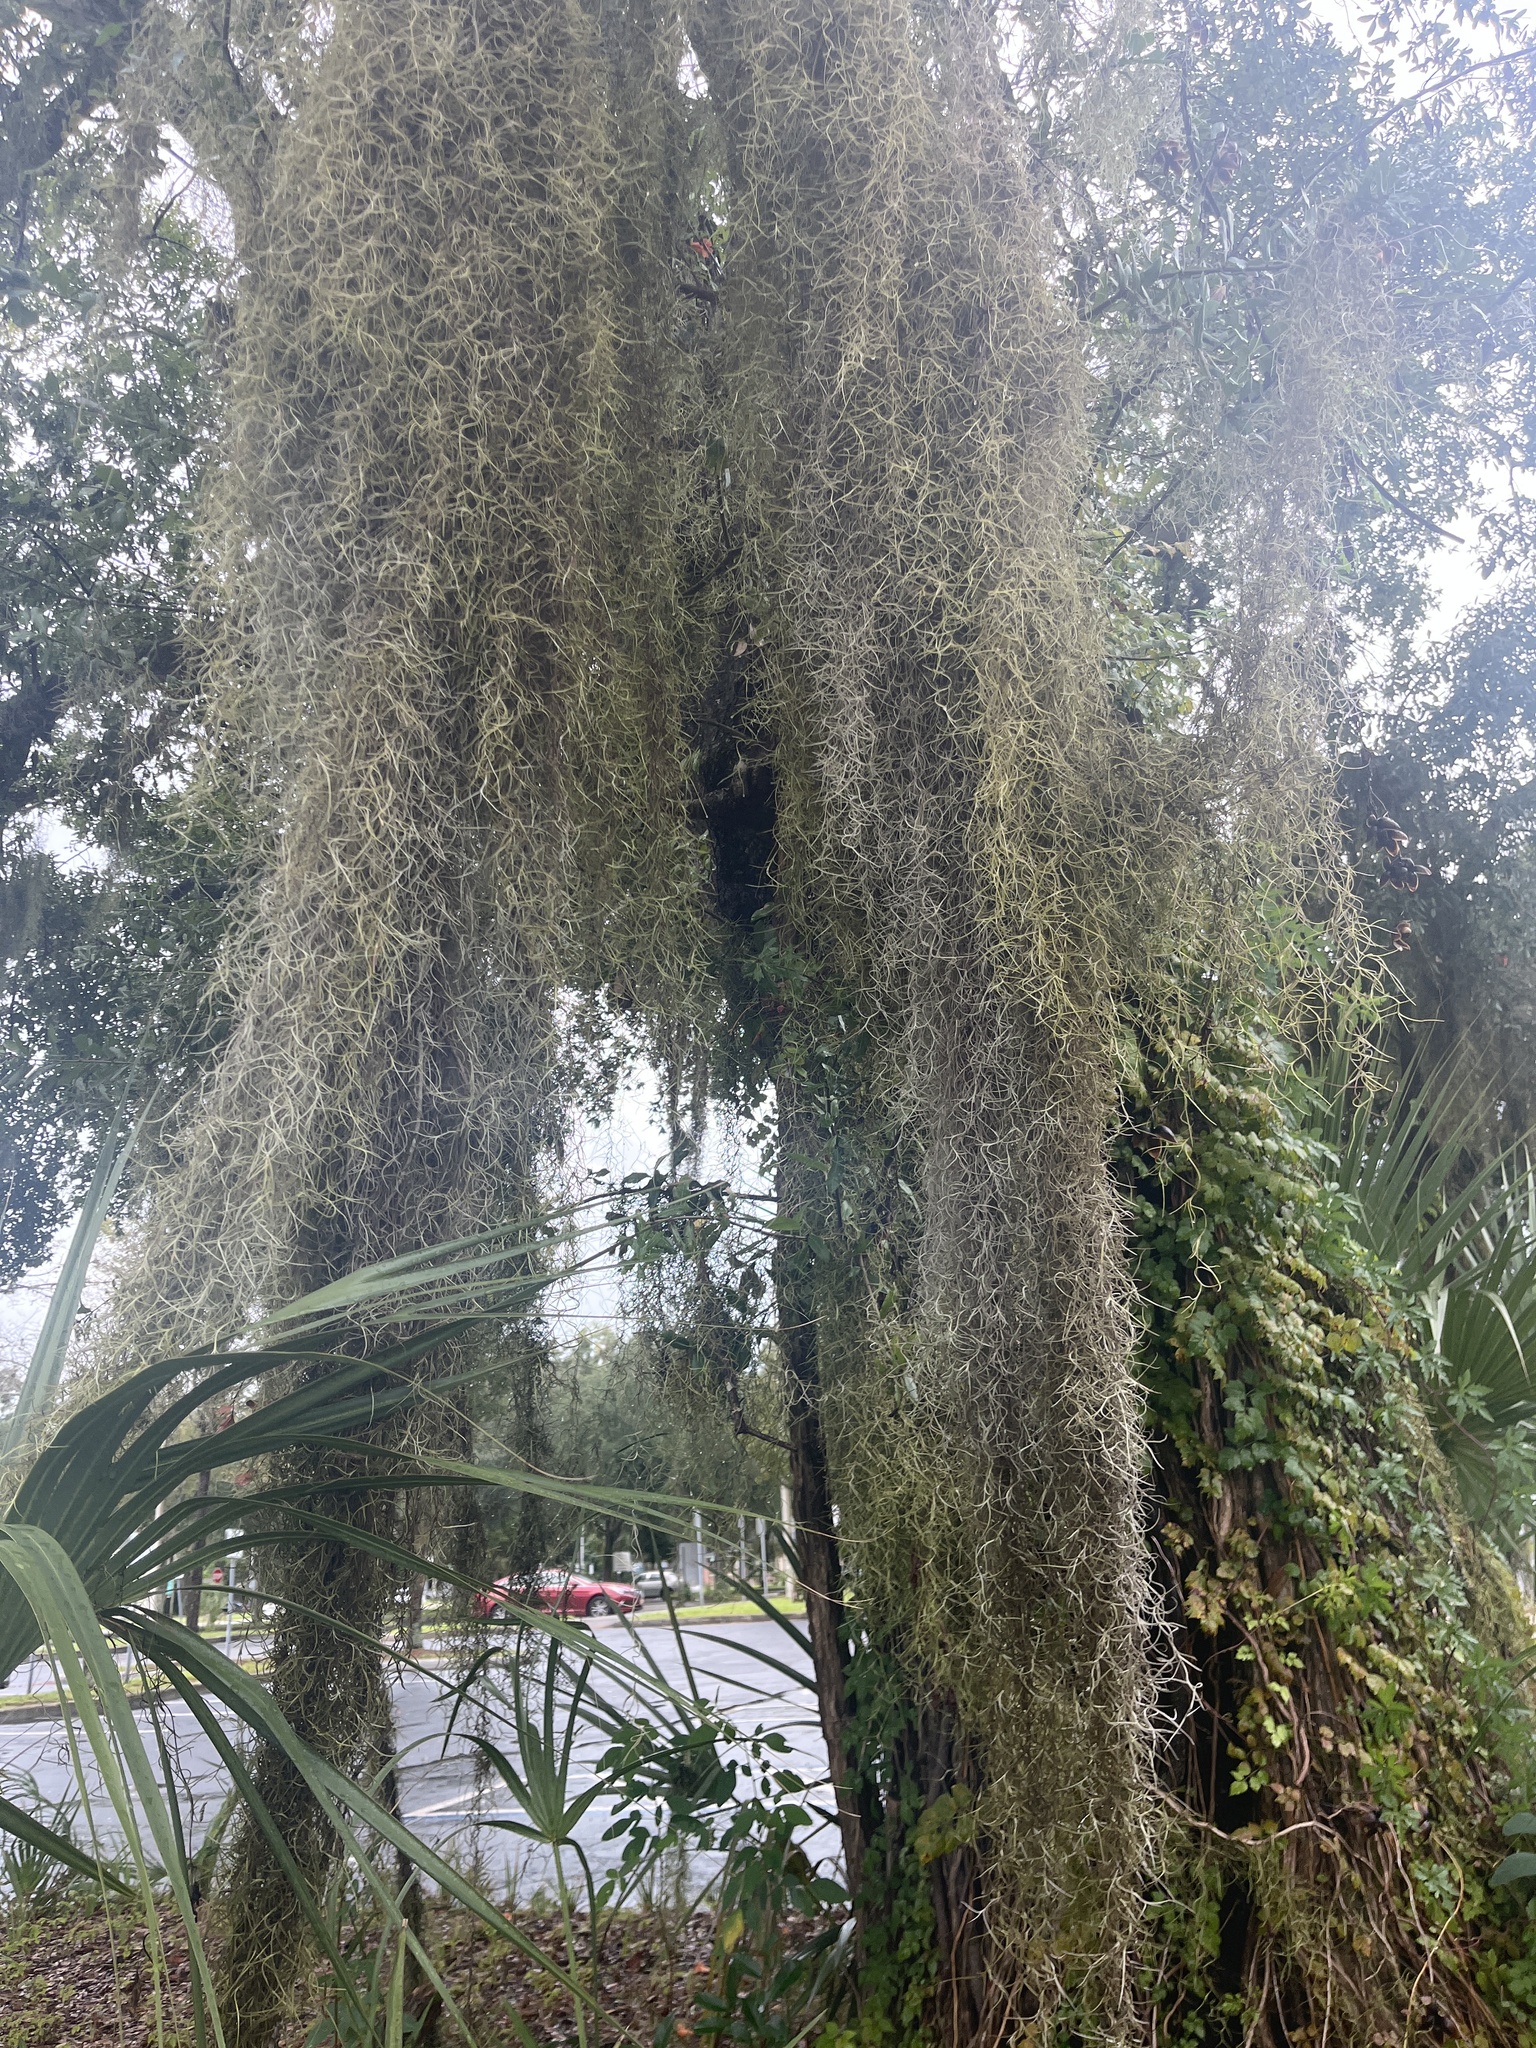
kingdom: Plantae
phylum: Tracheophyta
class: Liliopsida
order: Poales
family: Bromeliaceae
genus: Tillandsia
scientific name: Tillandsia usneoides
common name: Spanish moss
